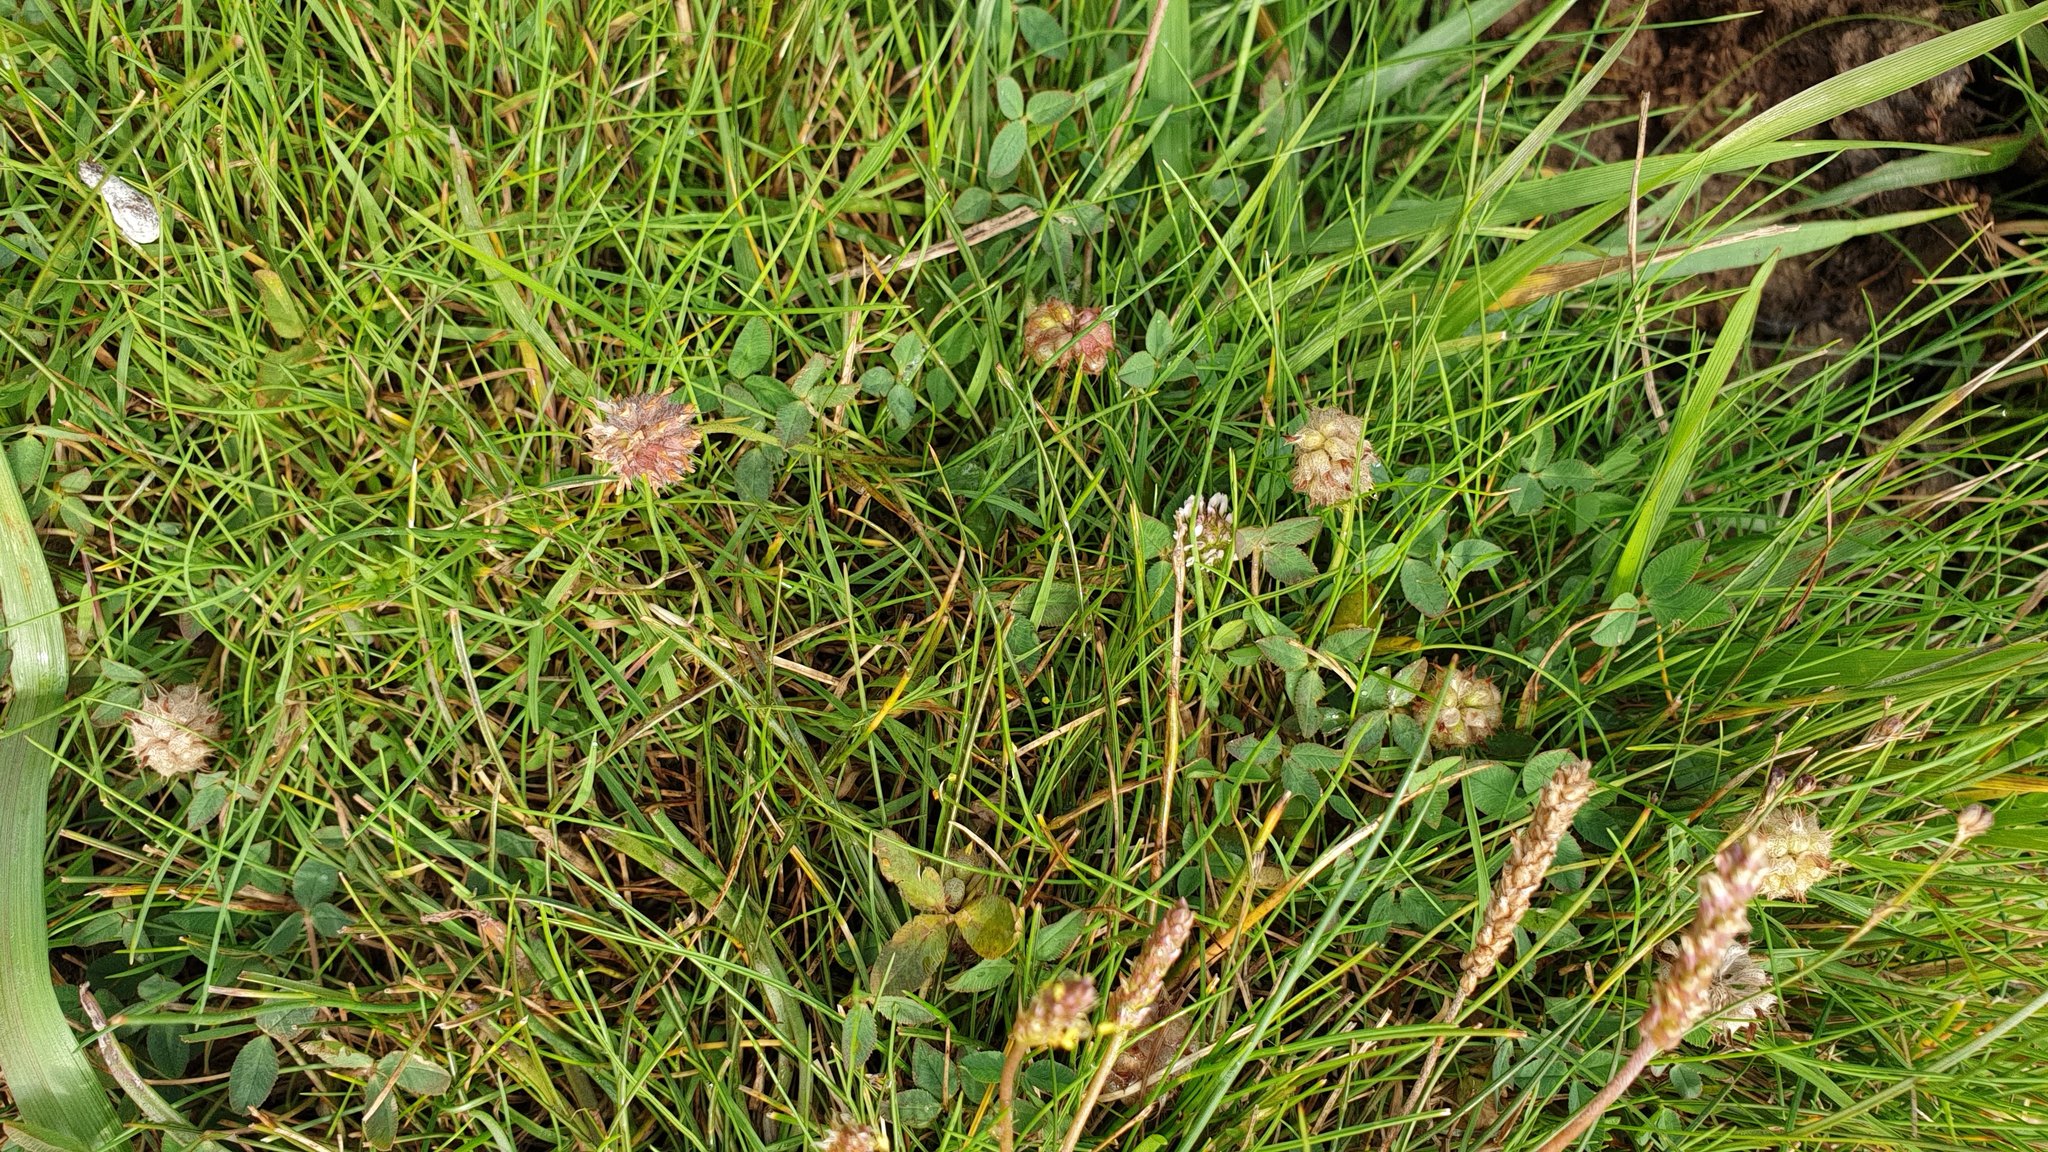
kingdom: Plantae
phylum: Tracheophyta
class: Magnoliopsida
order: Fabales
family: Fabaceae
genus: Trifolium
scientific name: Trifolium fragiferum
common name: Strawberry clover
